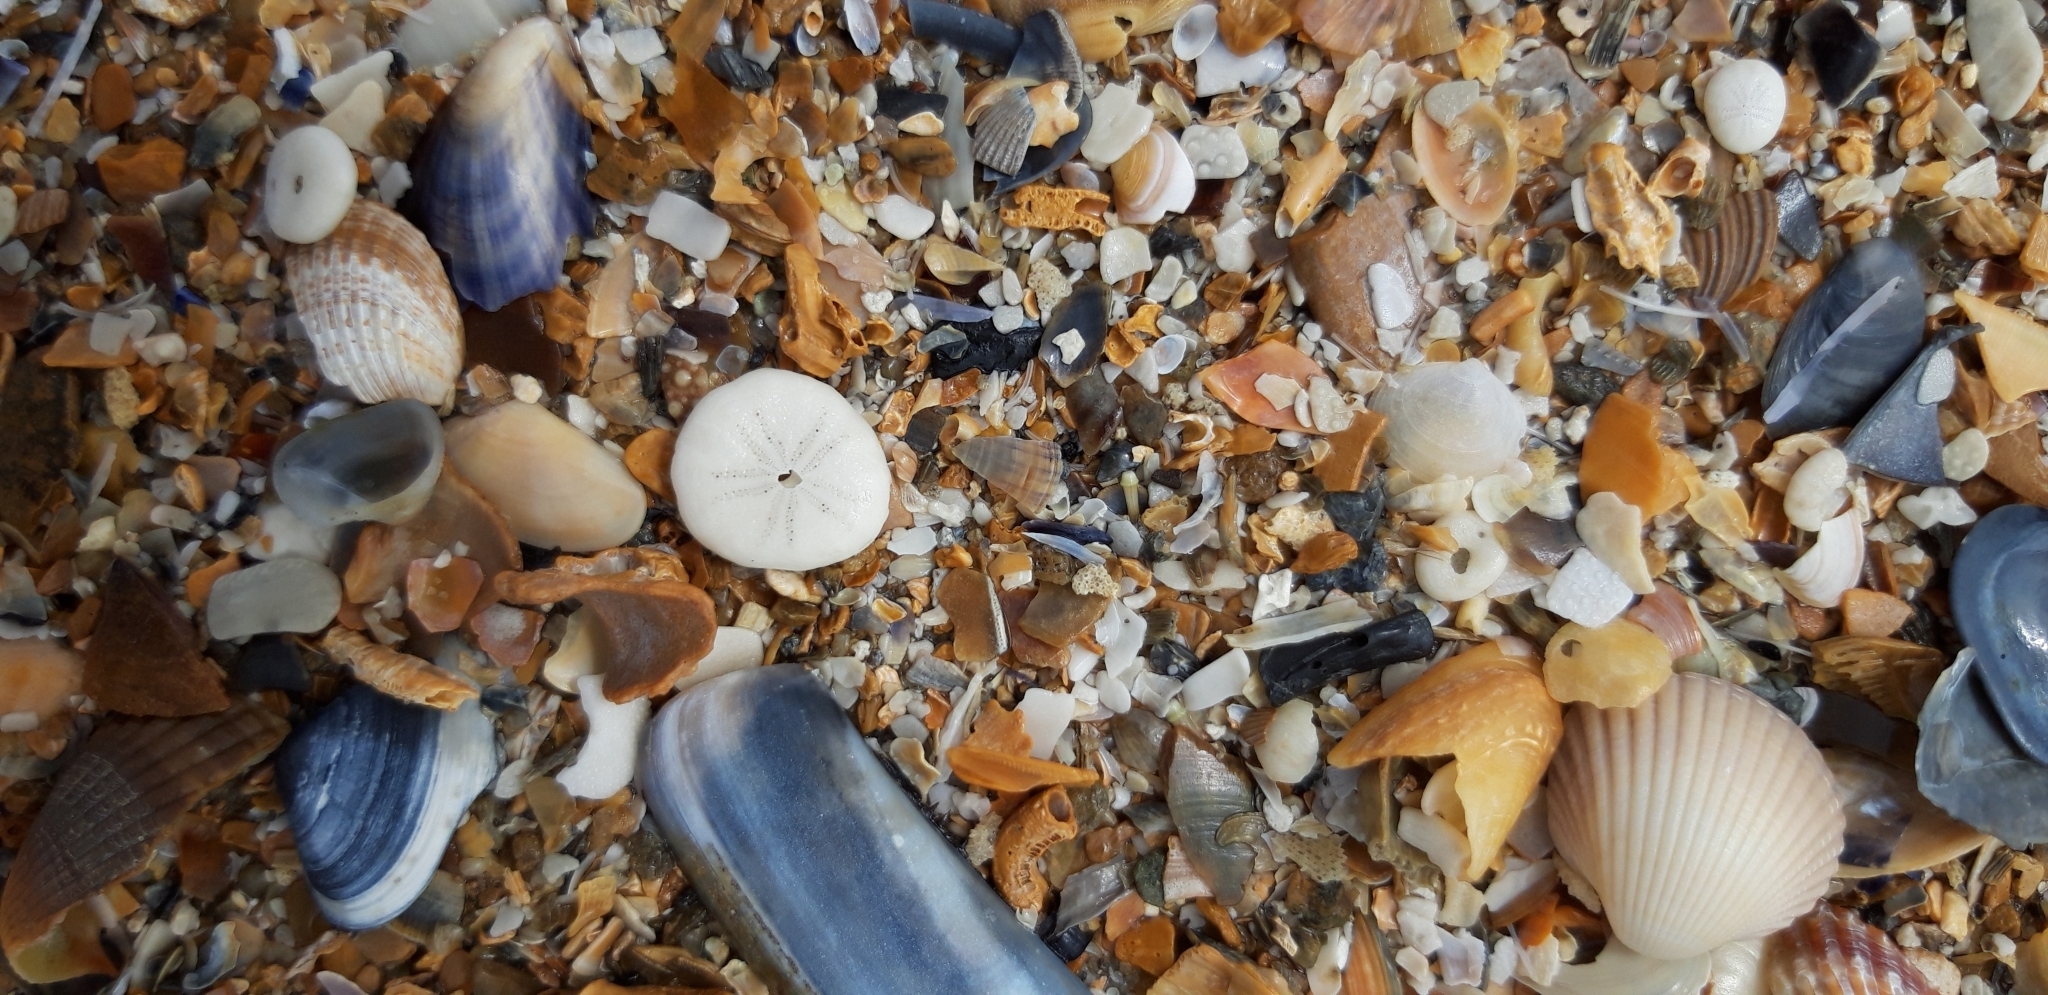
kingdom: Animalia
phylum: Echinodermata
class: Echinoidea
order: Echinolampadacea
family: Fibulariidae
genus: Echinocyamus
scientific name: Echinocyamus pusillus
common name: Broad beau of sea
